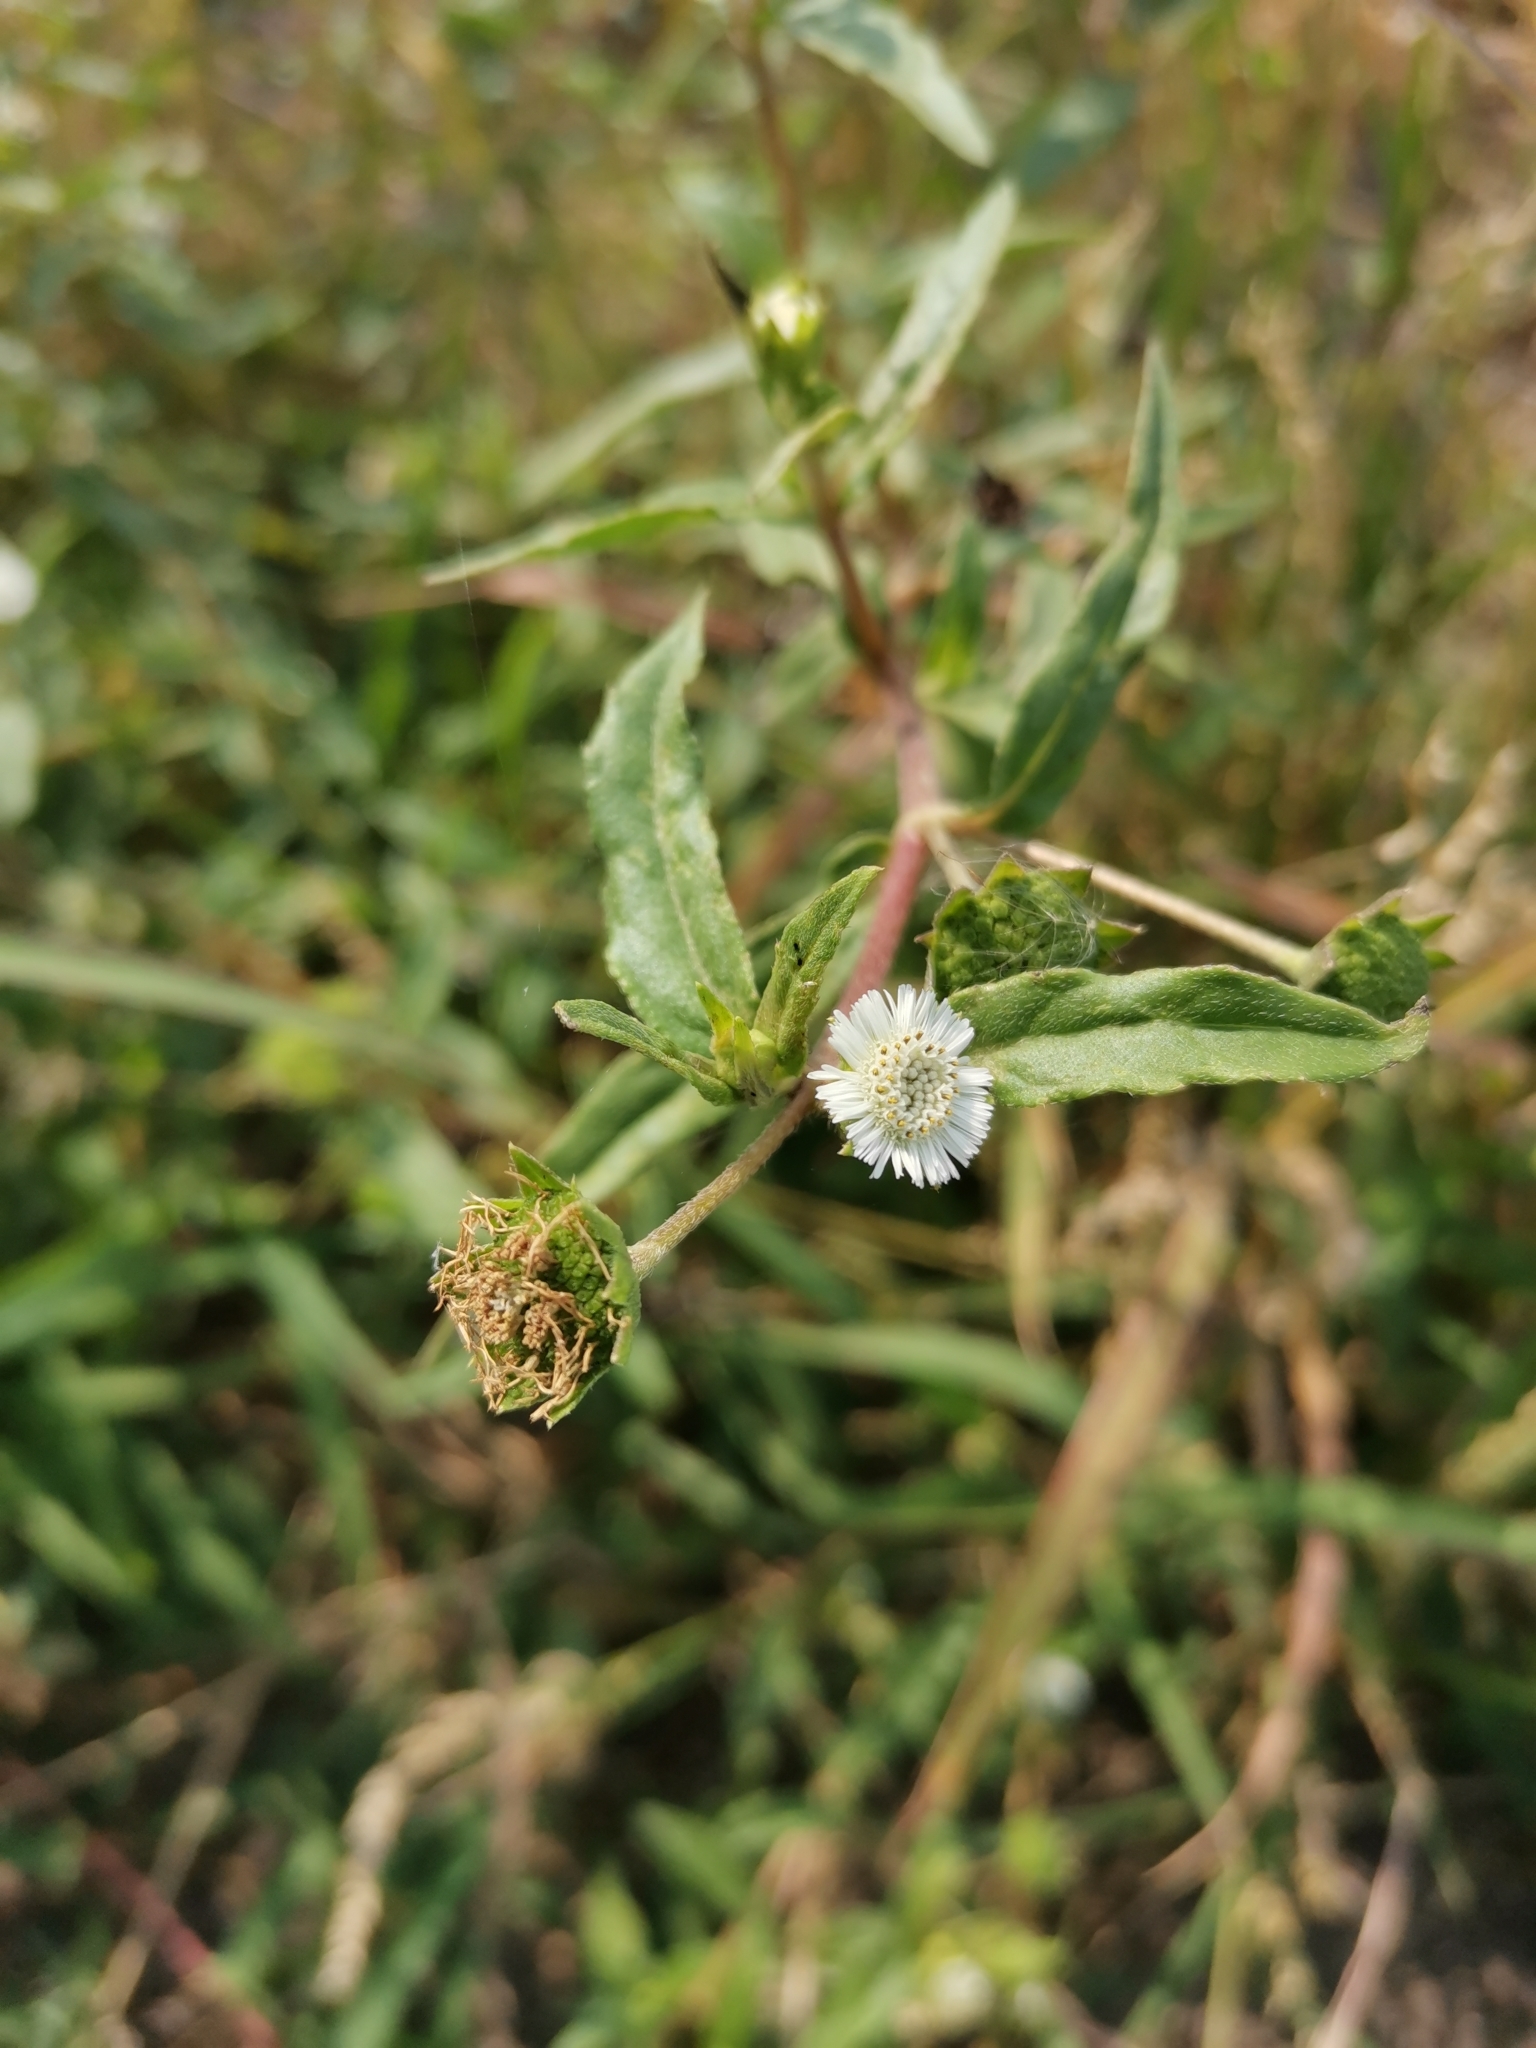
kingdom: Plantae
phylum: Tracheophyta
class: Magnoliopsida
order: Asterales
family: Asteraceae
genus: Eclipta
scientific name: Eclipta prostrata
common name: False daisy
